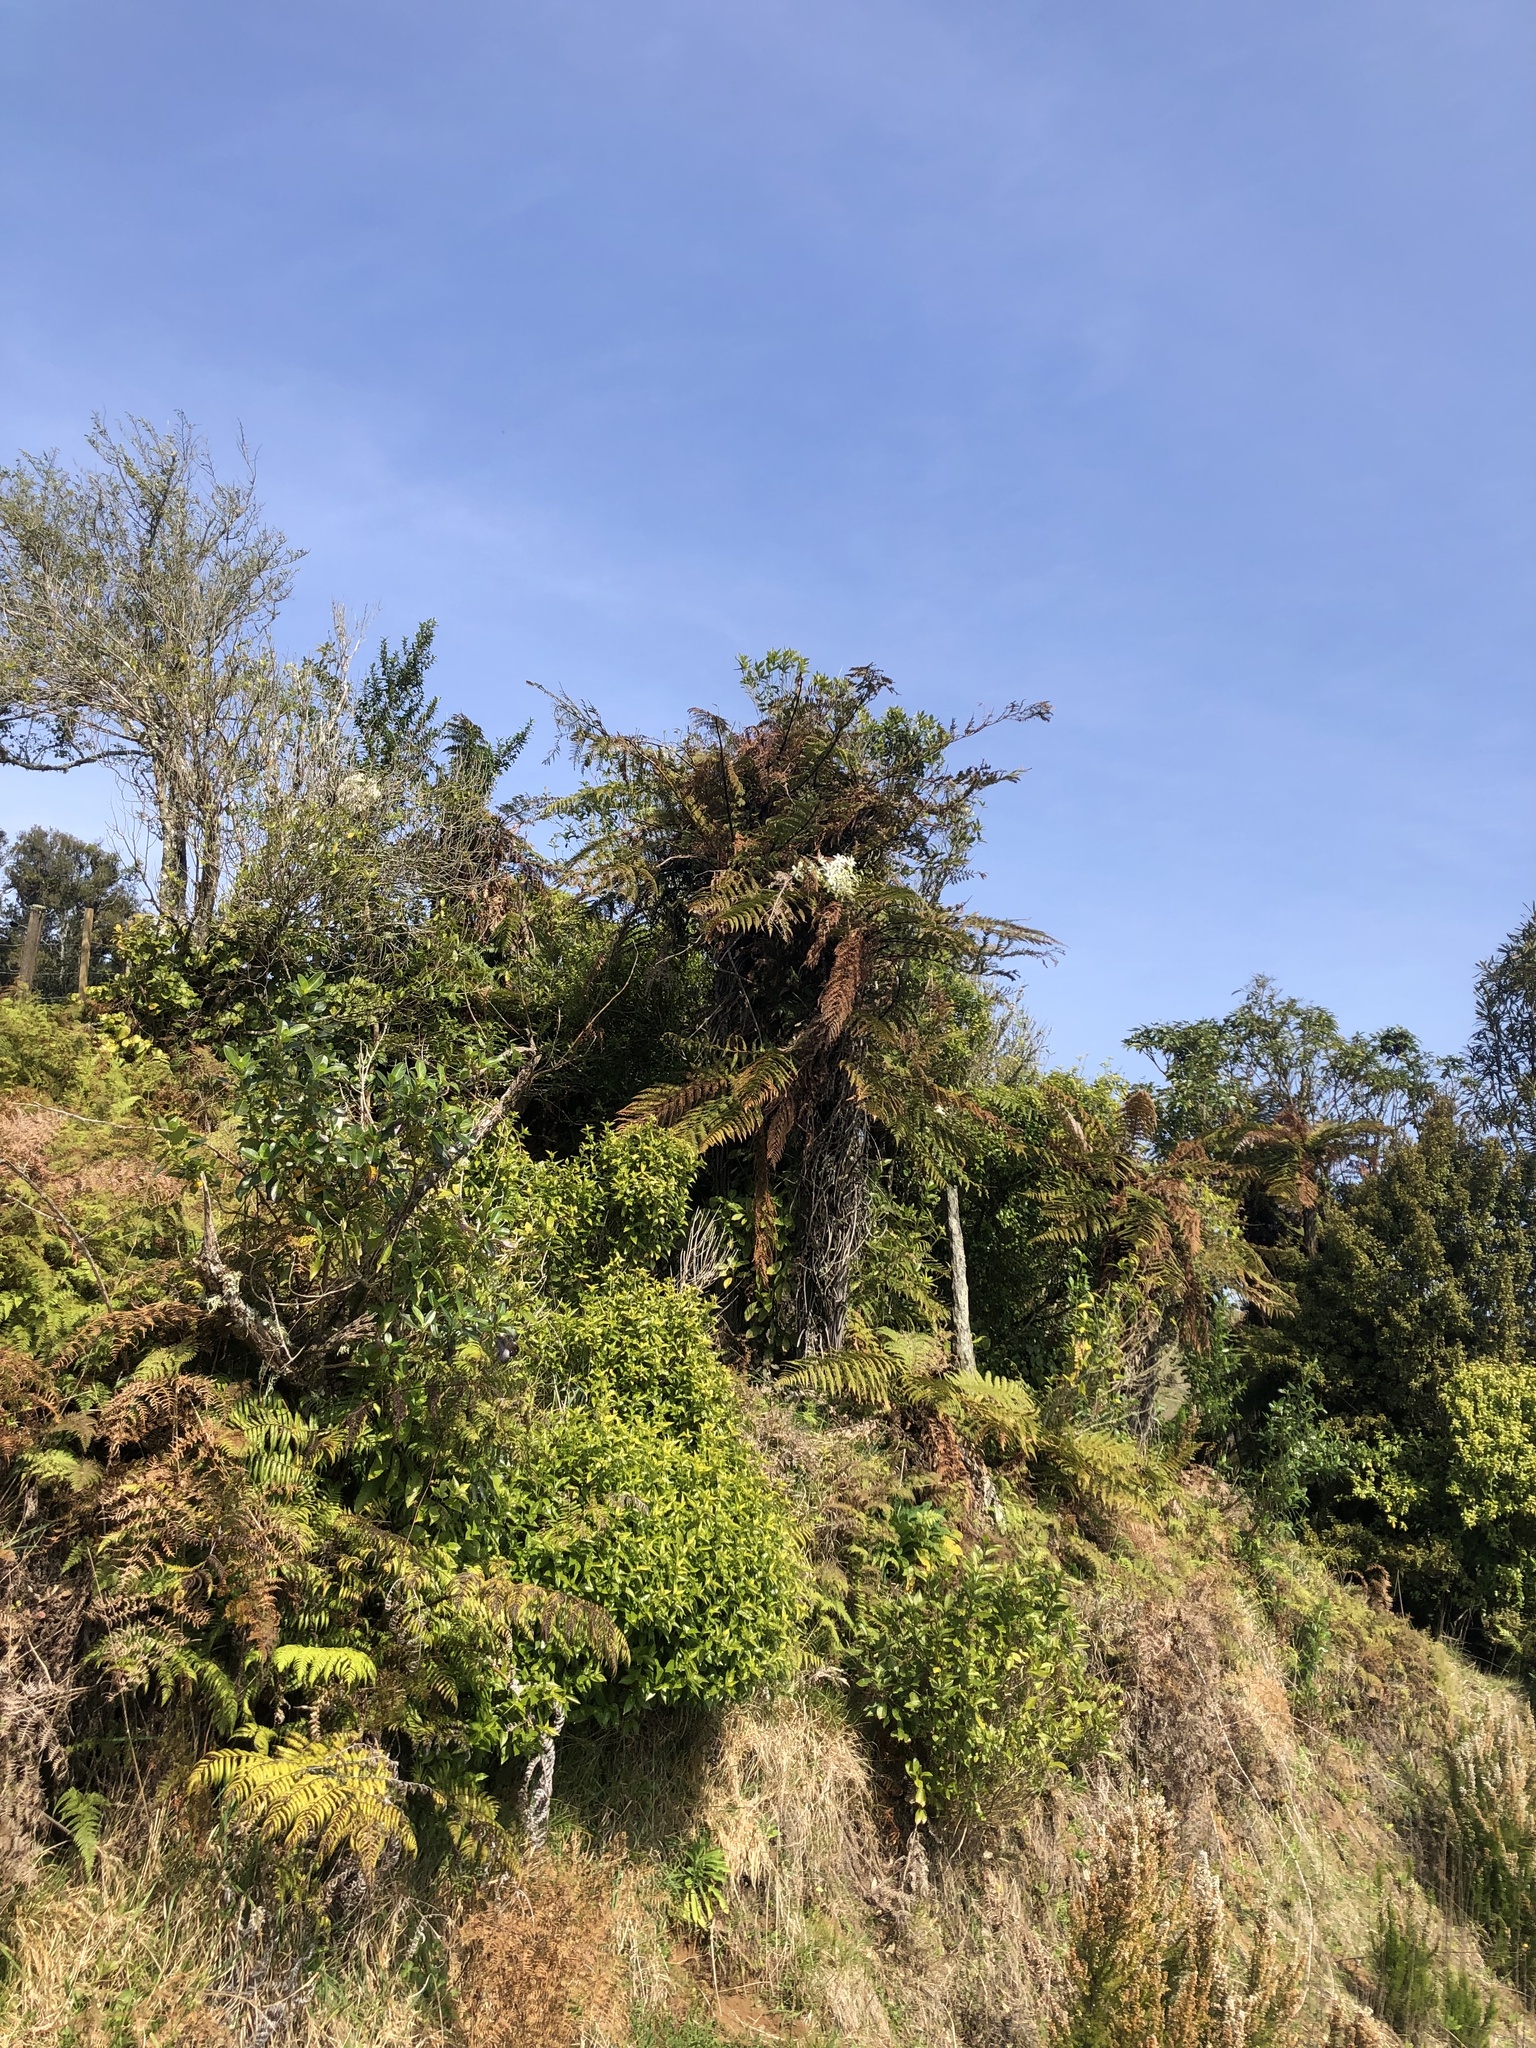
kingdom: Plantae
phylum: Tracheophyta
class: Magnoliopsida
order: Ranunculales
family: Ranunculaceae
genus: Clematis
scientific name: Clematis paniculata
